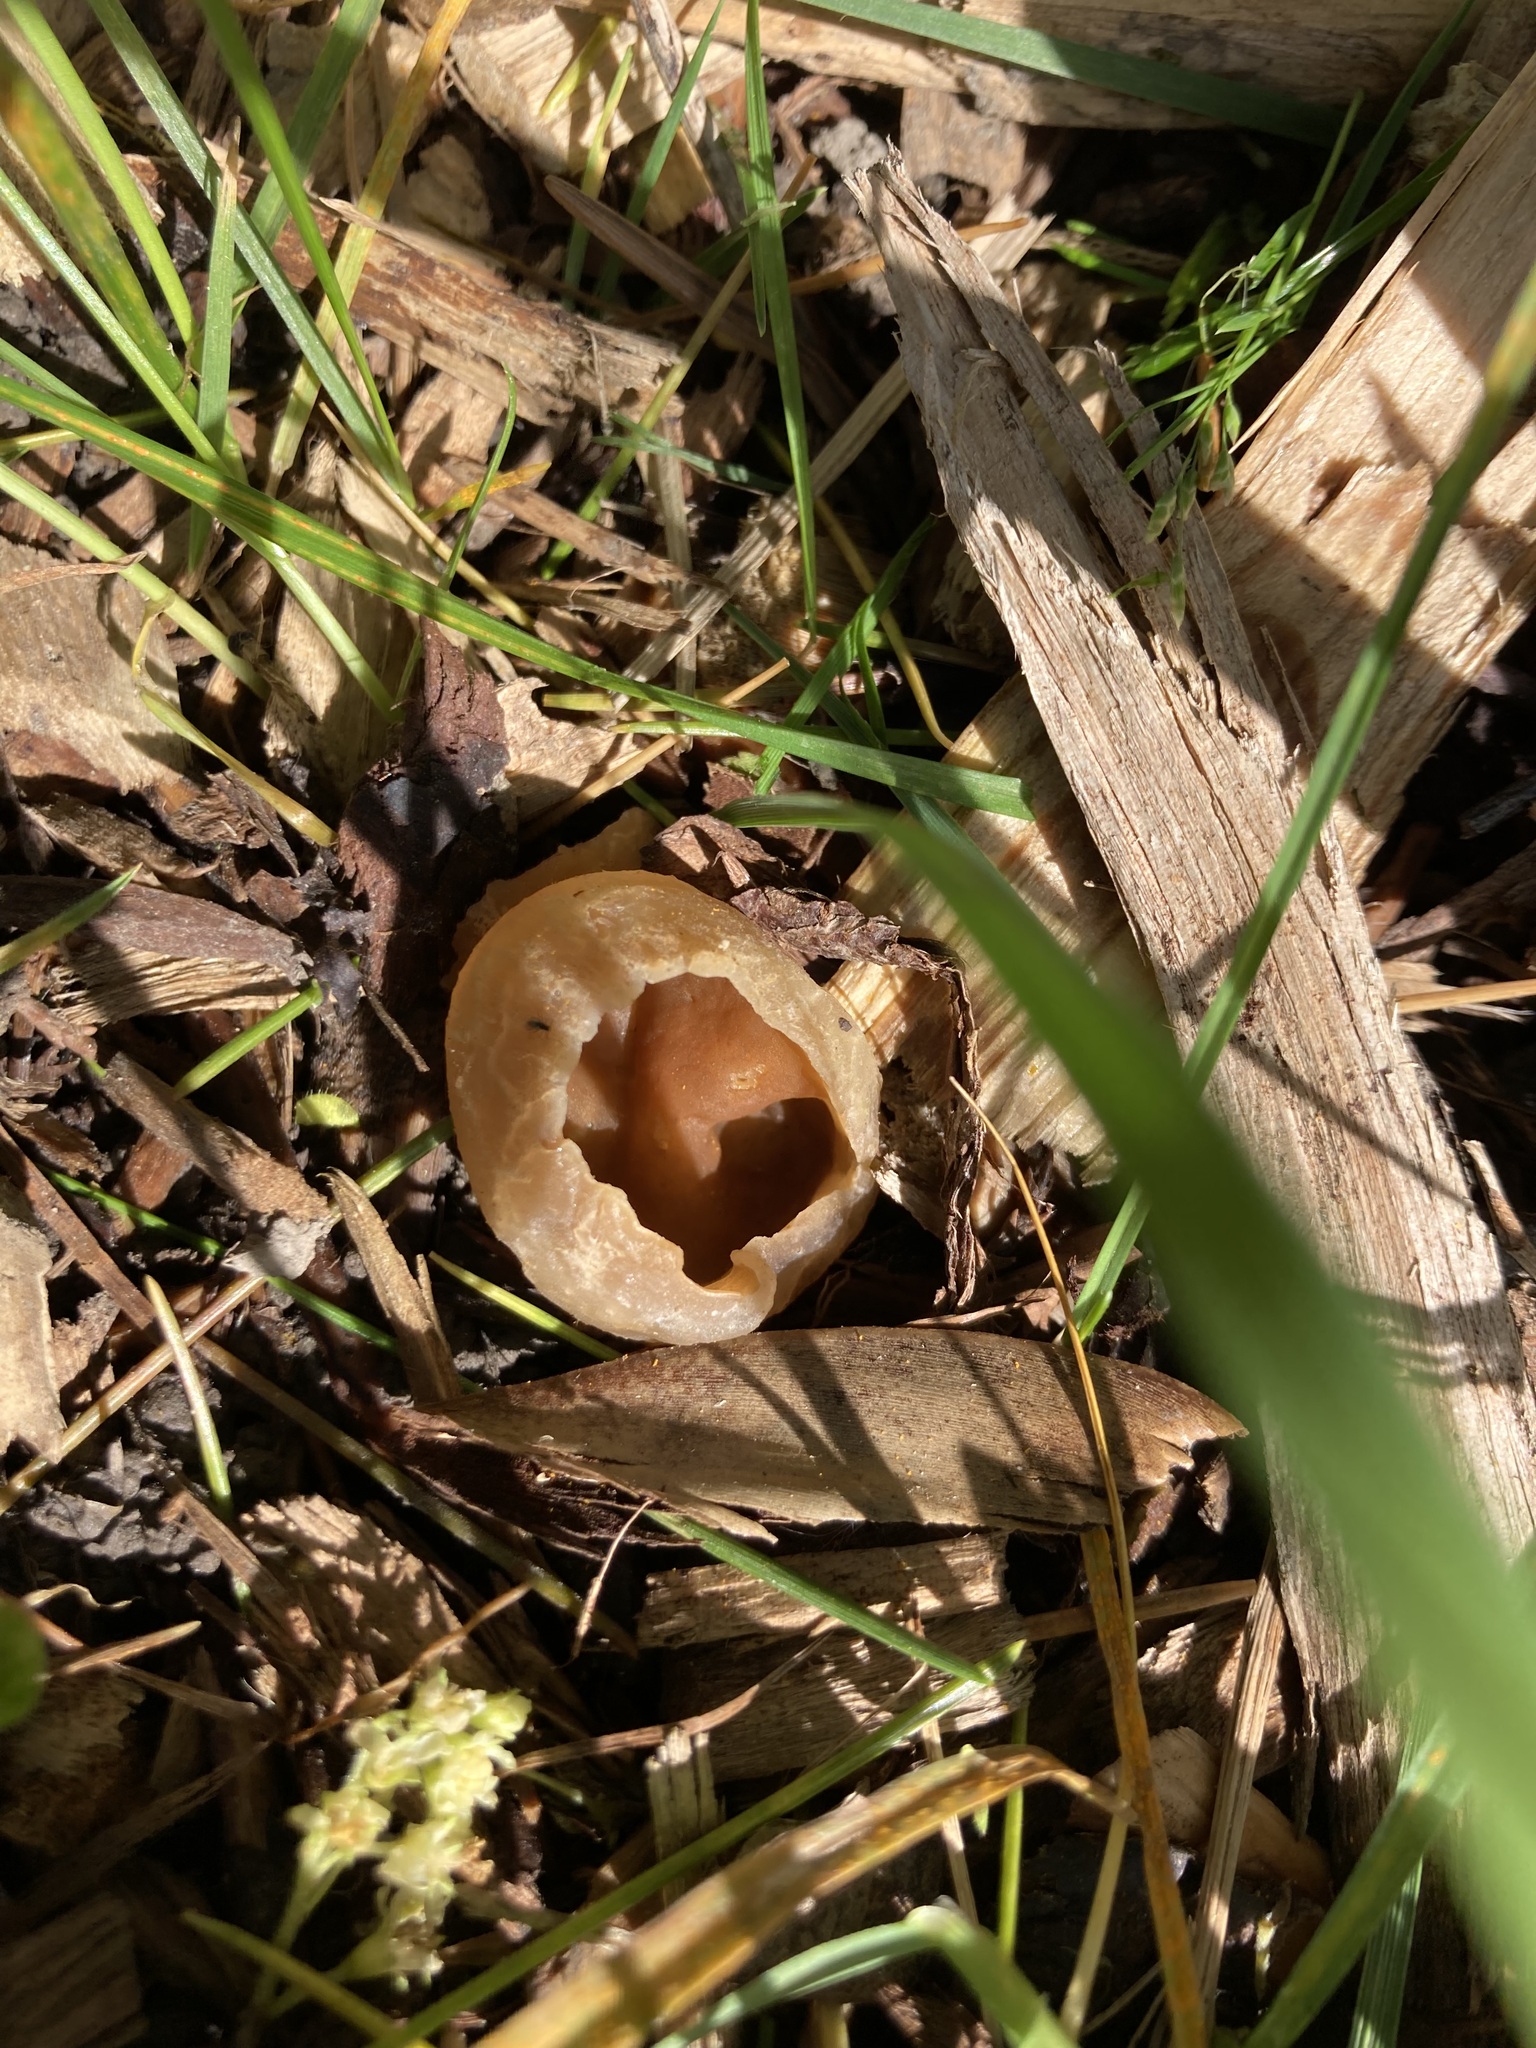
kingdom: Fungi
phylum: Ascomycota
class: Pezizomycetes
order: Pezizales
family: Pezizaceae
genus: Peziza
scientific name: Peziza varia
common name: Layered cup
